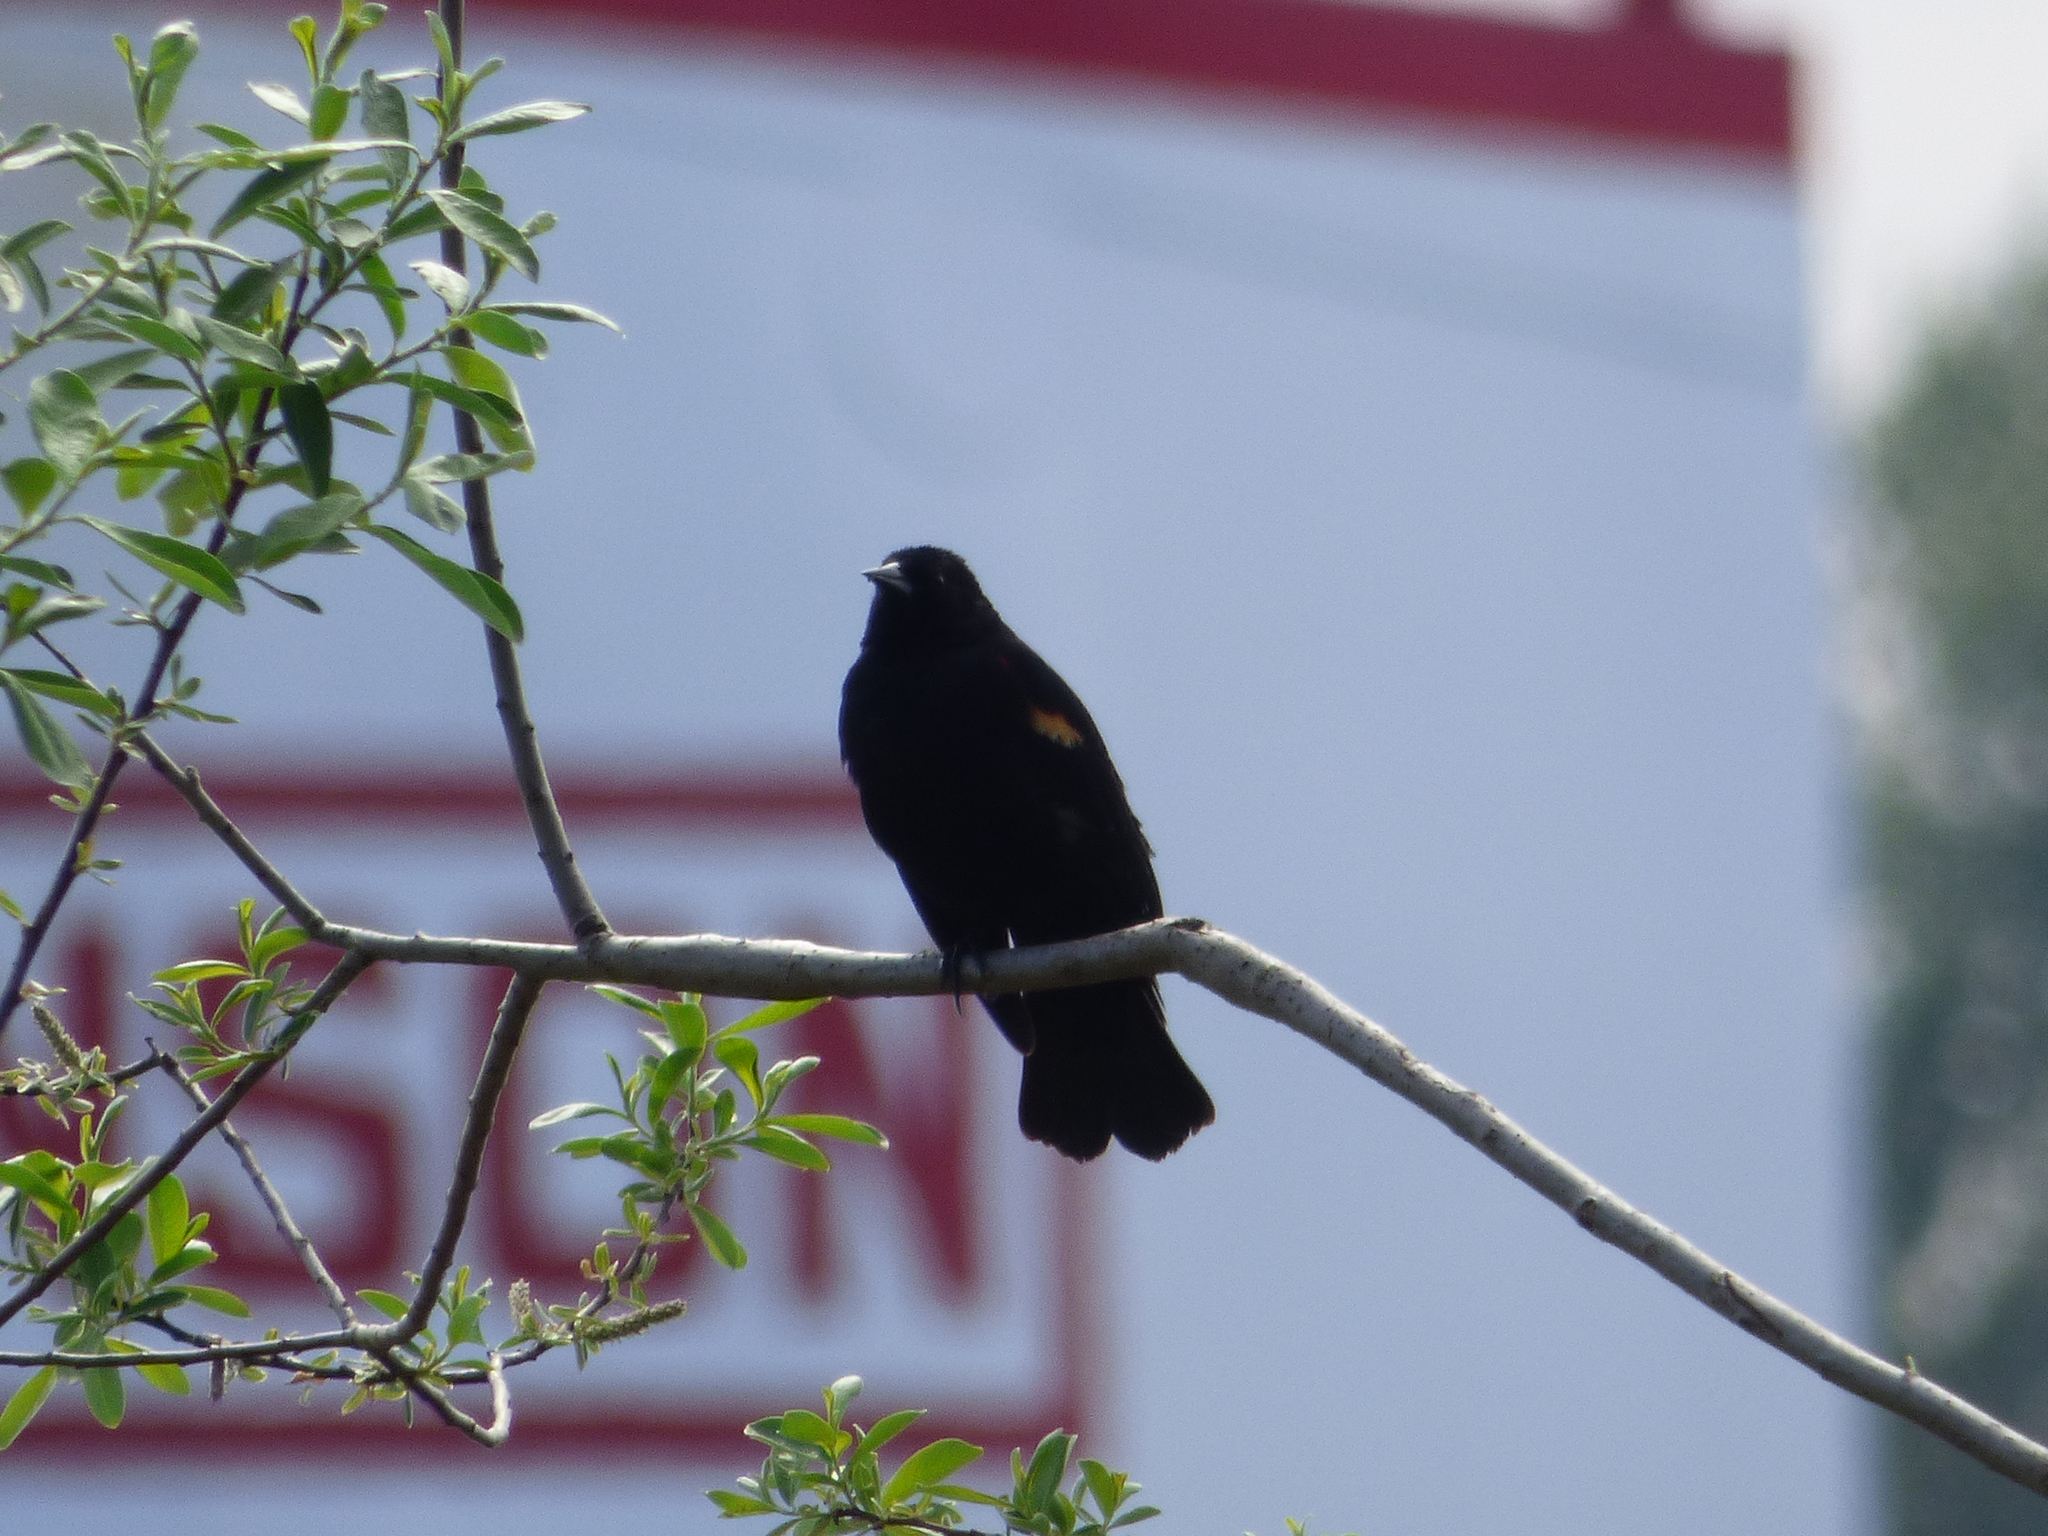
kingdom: Animalia
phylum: Chordata
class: Aves
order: Passeriformes
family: Icteridae
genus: Agelaius
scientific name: Agelaius phoeniceus
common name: Red-winged blackbird
